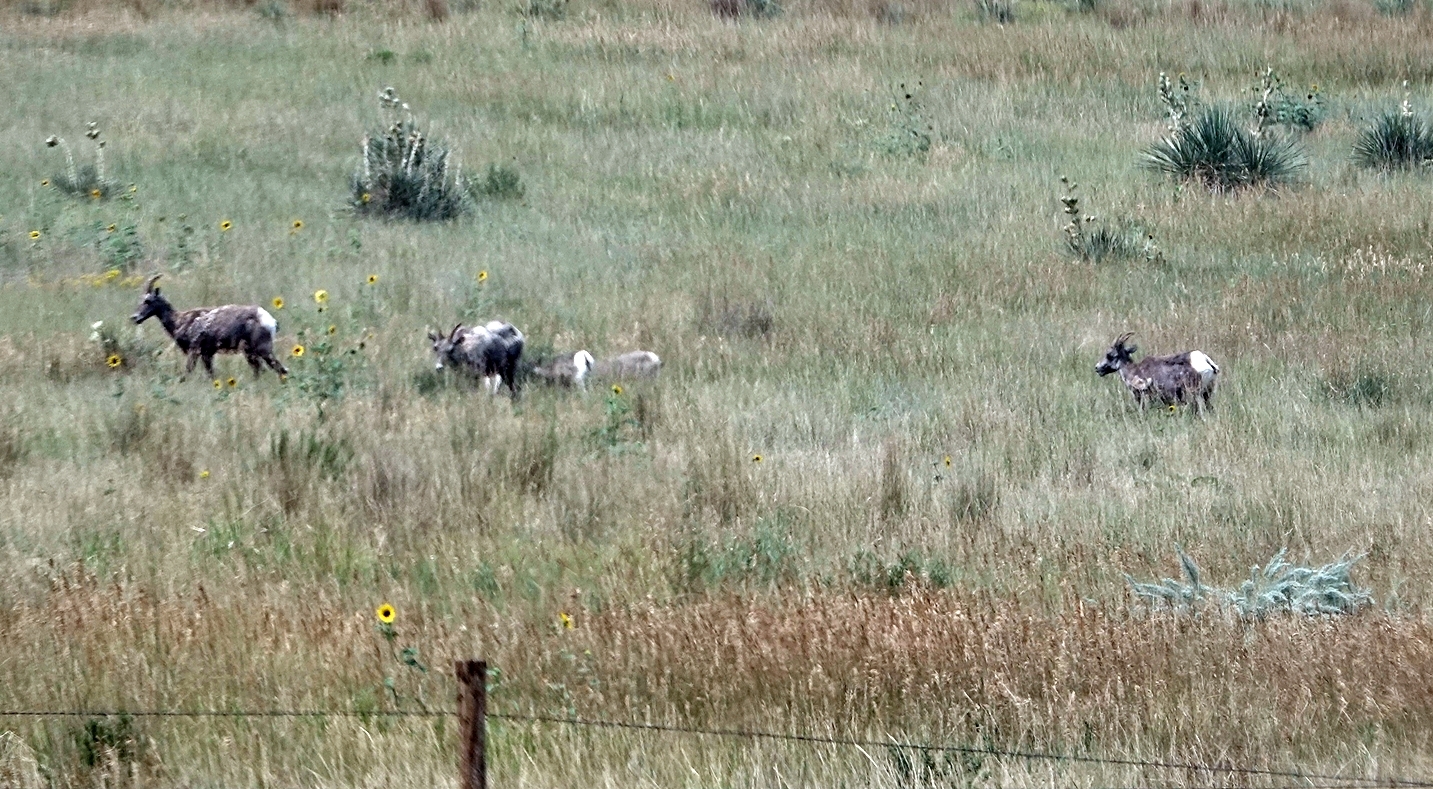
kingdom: Animalia
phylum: Chordata
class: Mammalia
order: Artiodactyla
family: Bovidae
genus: Ovis
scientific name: Ovis canadensis
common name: Bighorn sheep
